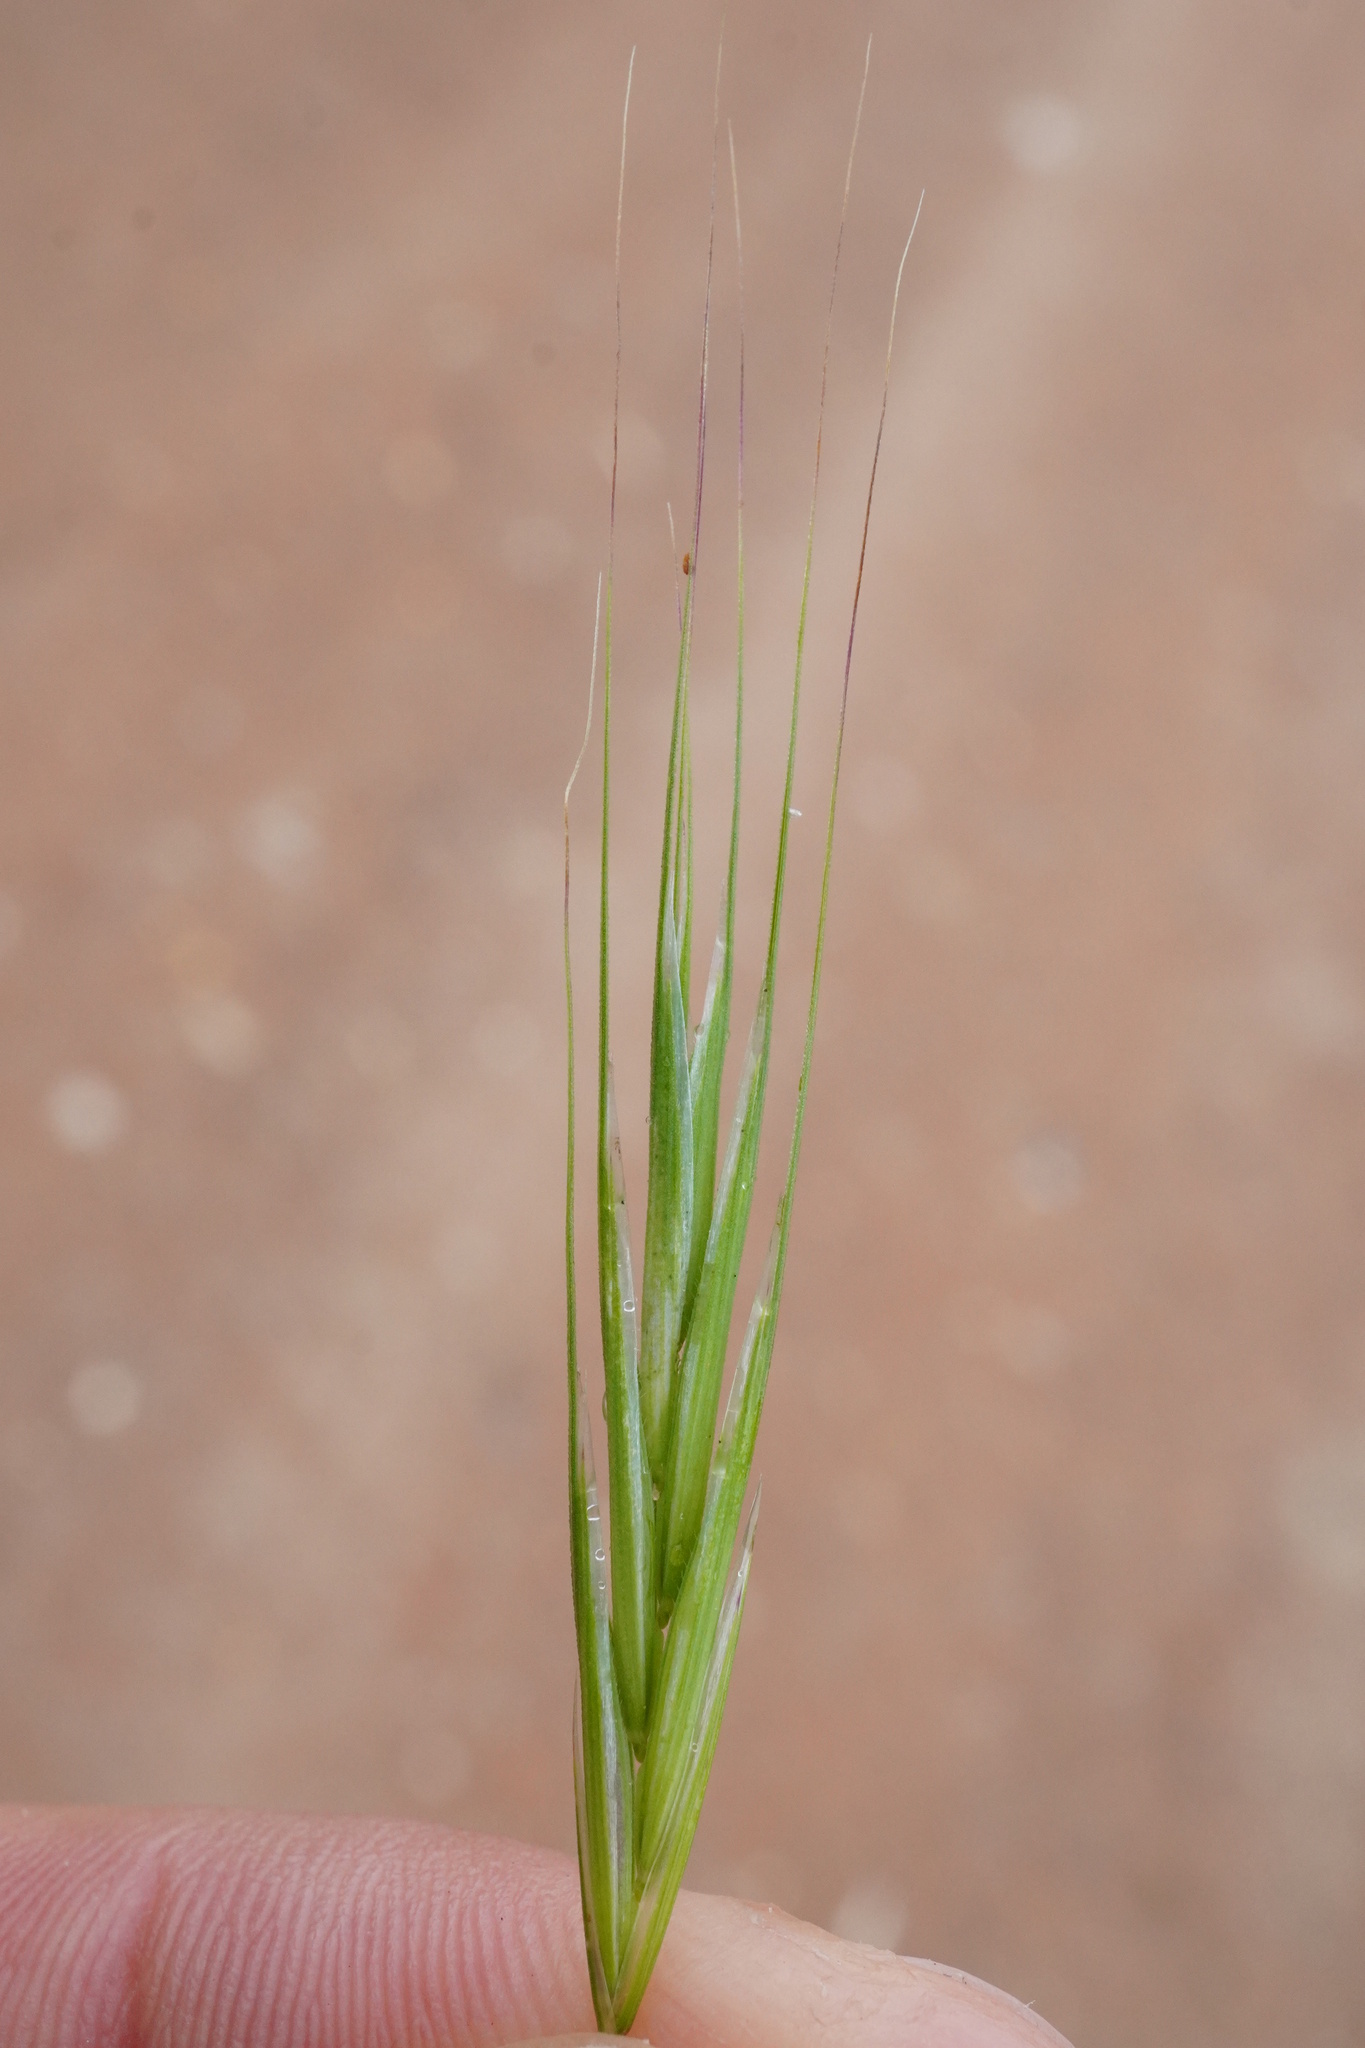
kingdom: Plantae
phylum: Tracheophyta
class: Liliopsida
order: Poales
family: Poaceae
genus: Bromus
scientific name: Bromus sterilis
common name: Poverty brome
